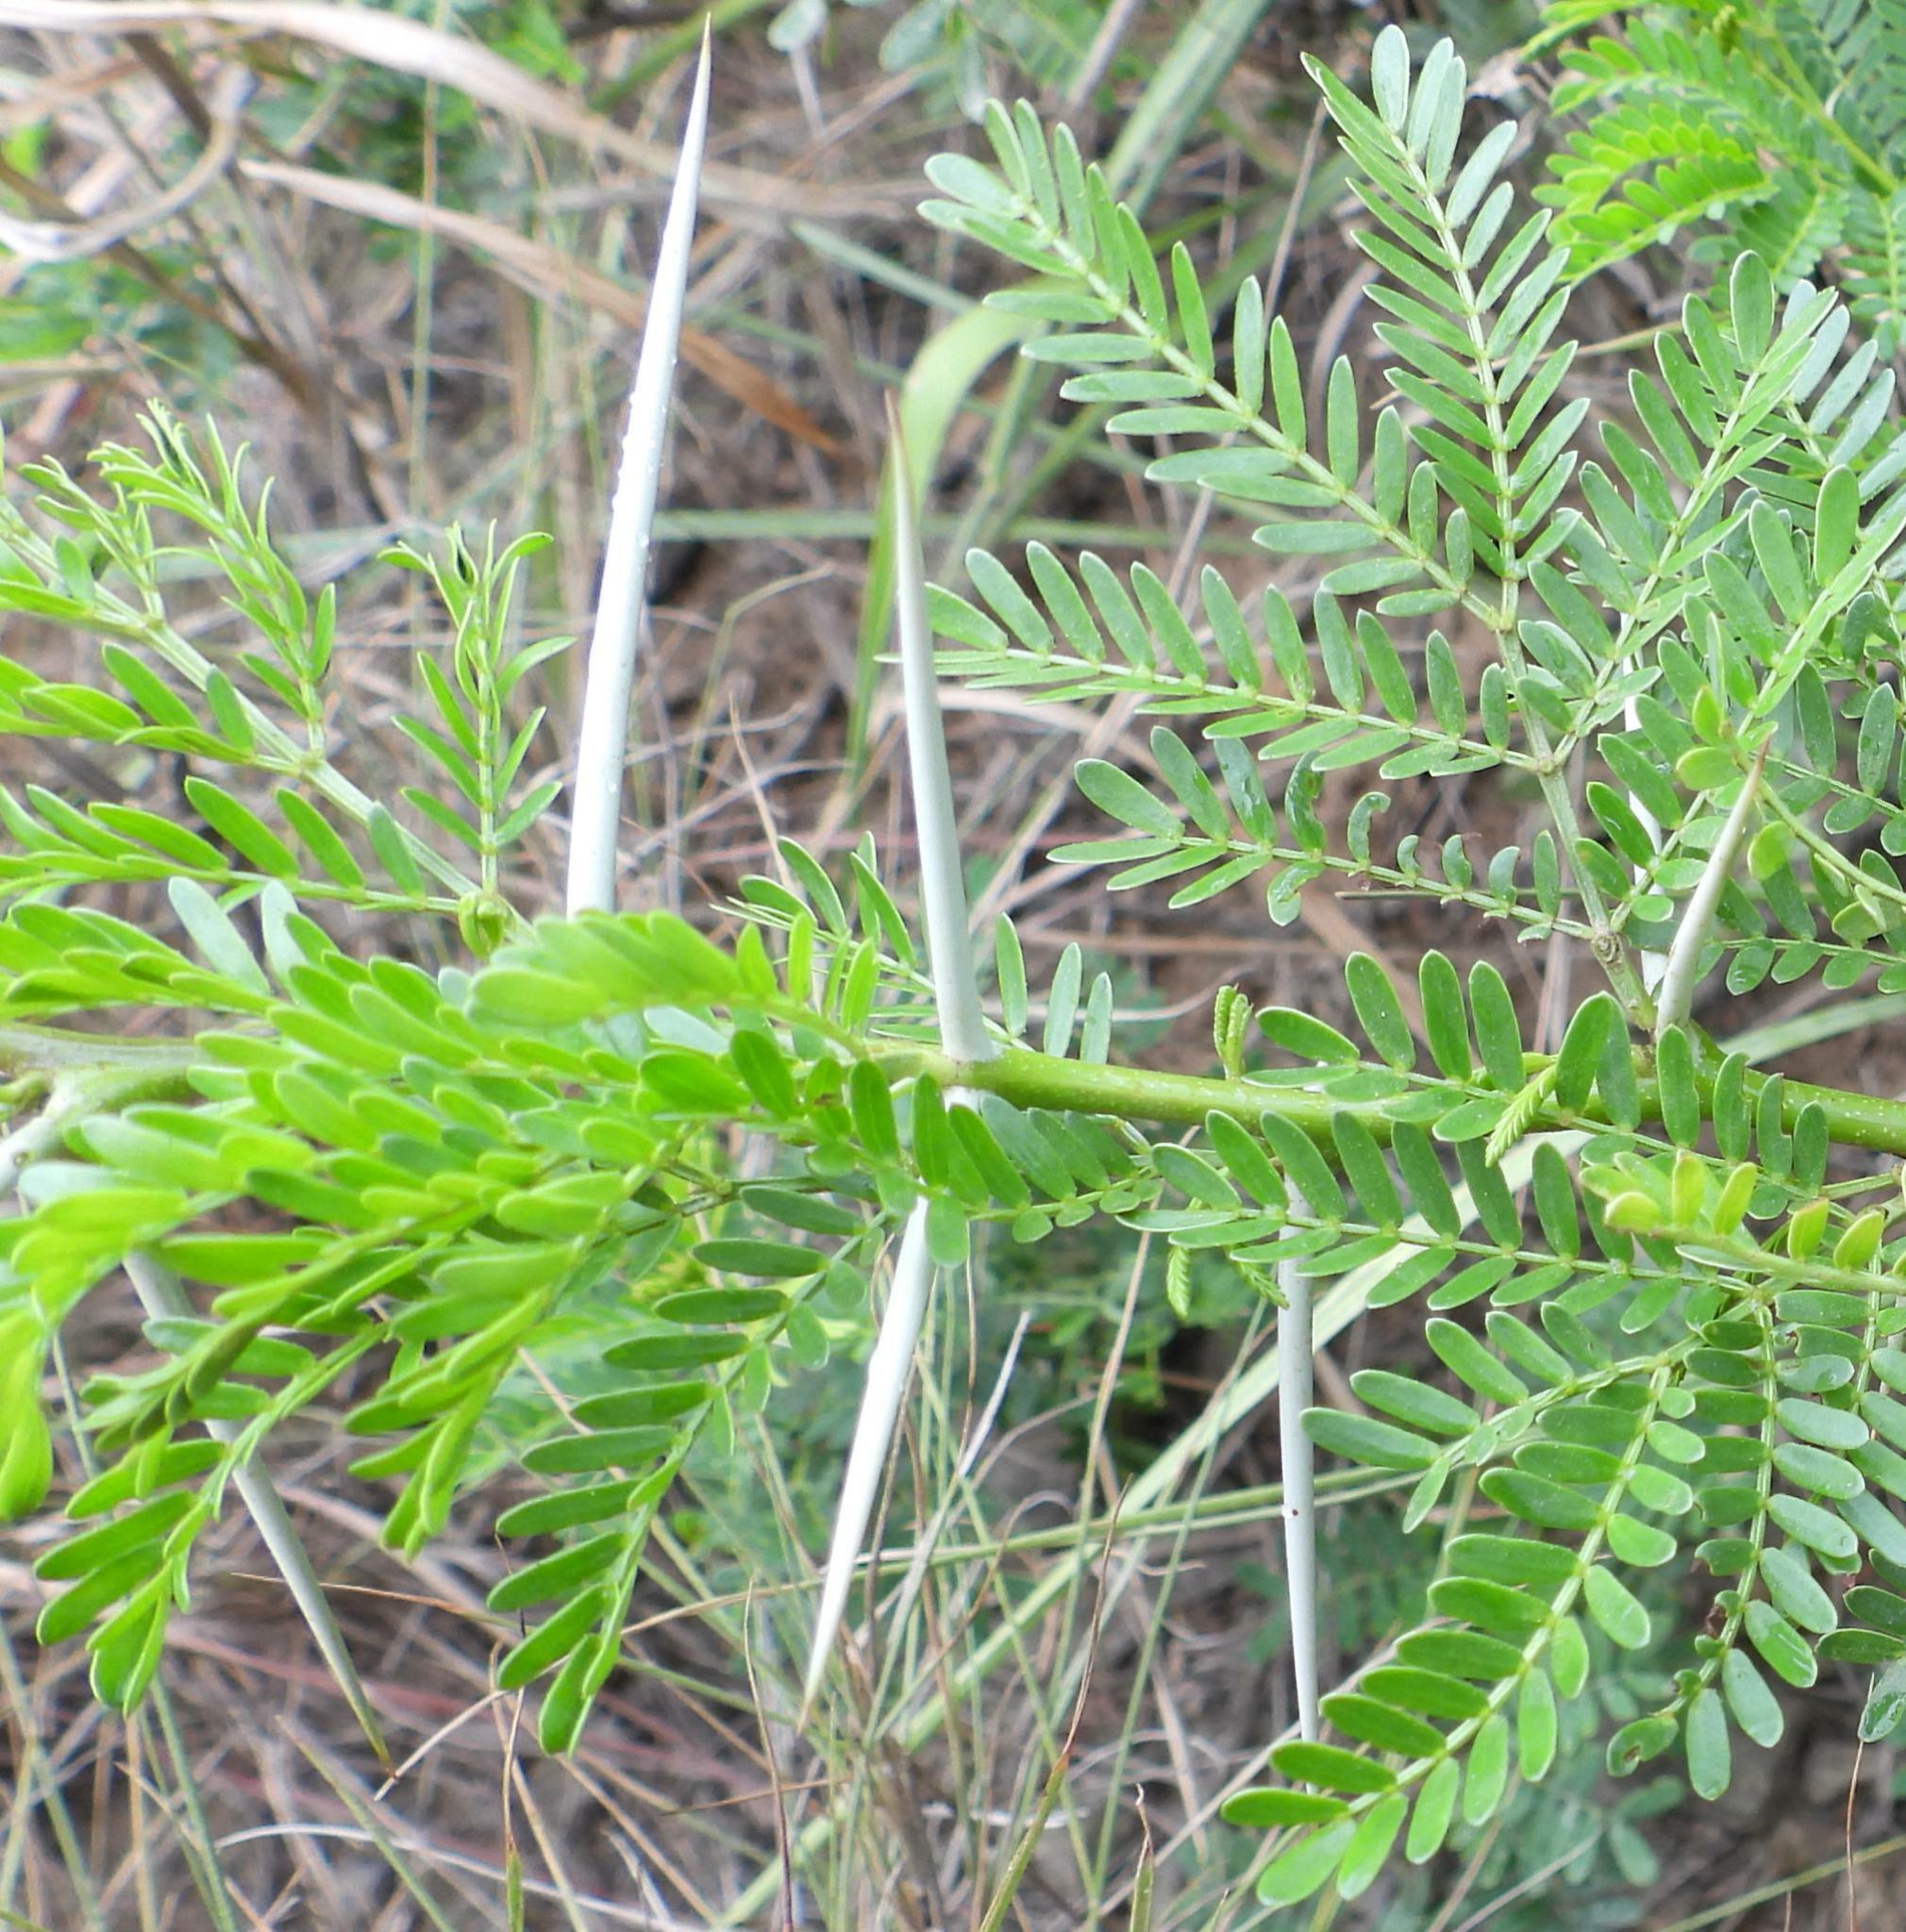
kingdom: Plantae
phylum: Tracheophyta
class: Magnoliopsida
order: Fabales
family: Fabaceae
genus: Vachellia
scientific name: Vachellia karroo
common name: Sweet thorn
